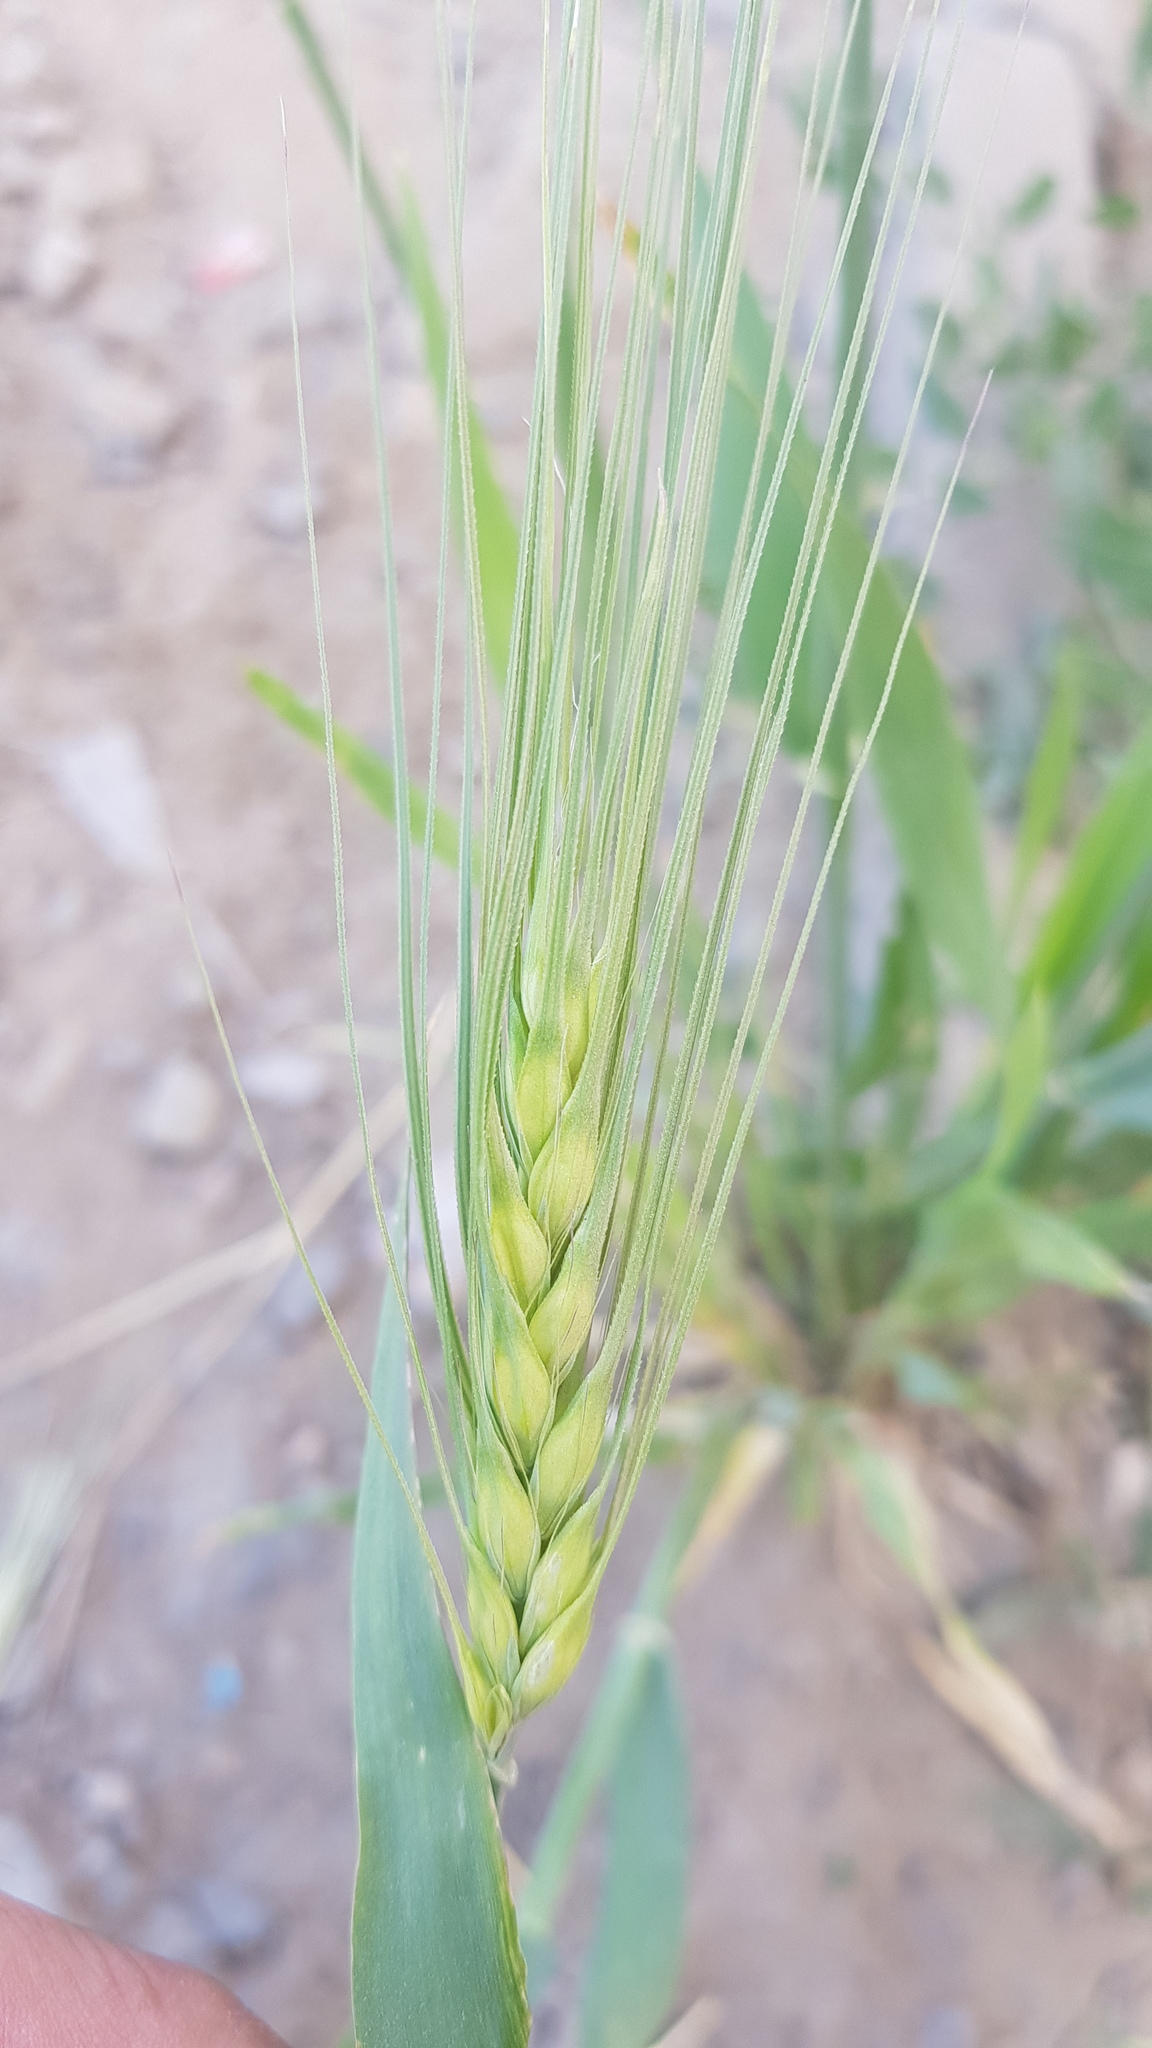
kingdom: Plantae
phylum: Tracheophyta
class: Liliopsida
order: Poales
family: Poaceae
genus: Hordeum
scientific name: Hordeum vulgare
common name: Common barley
